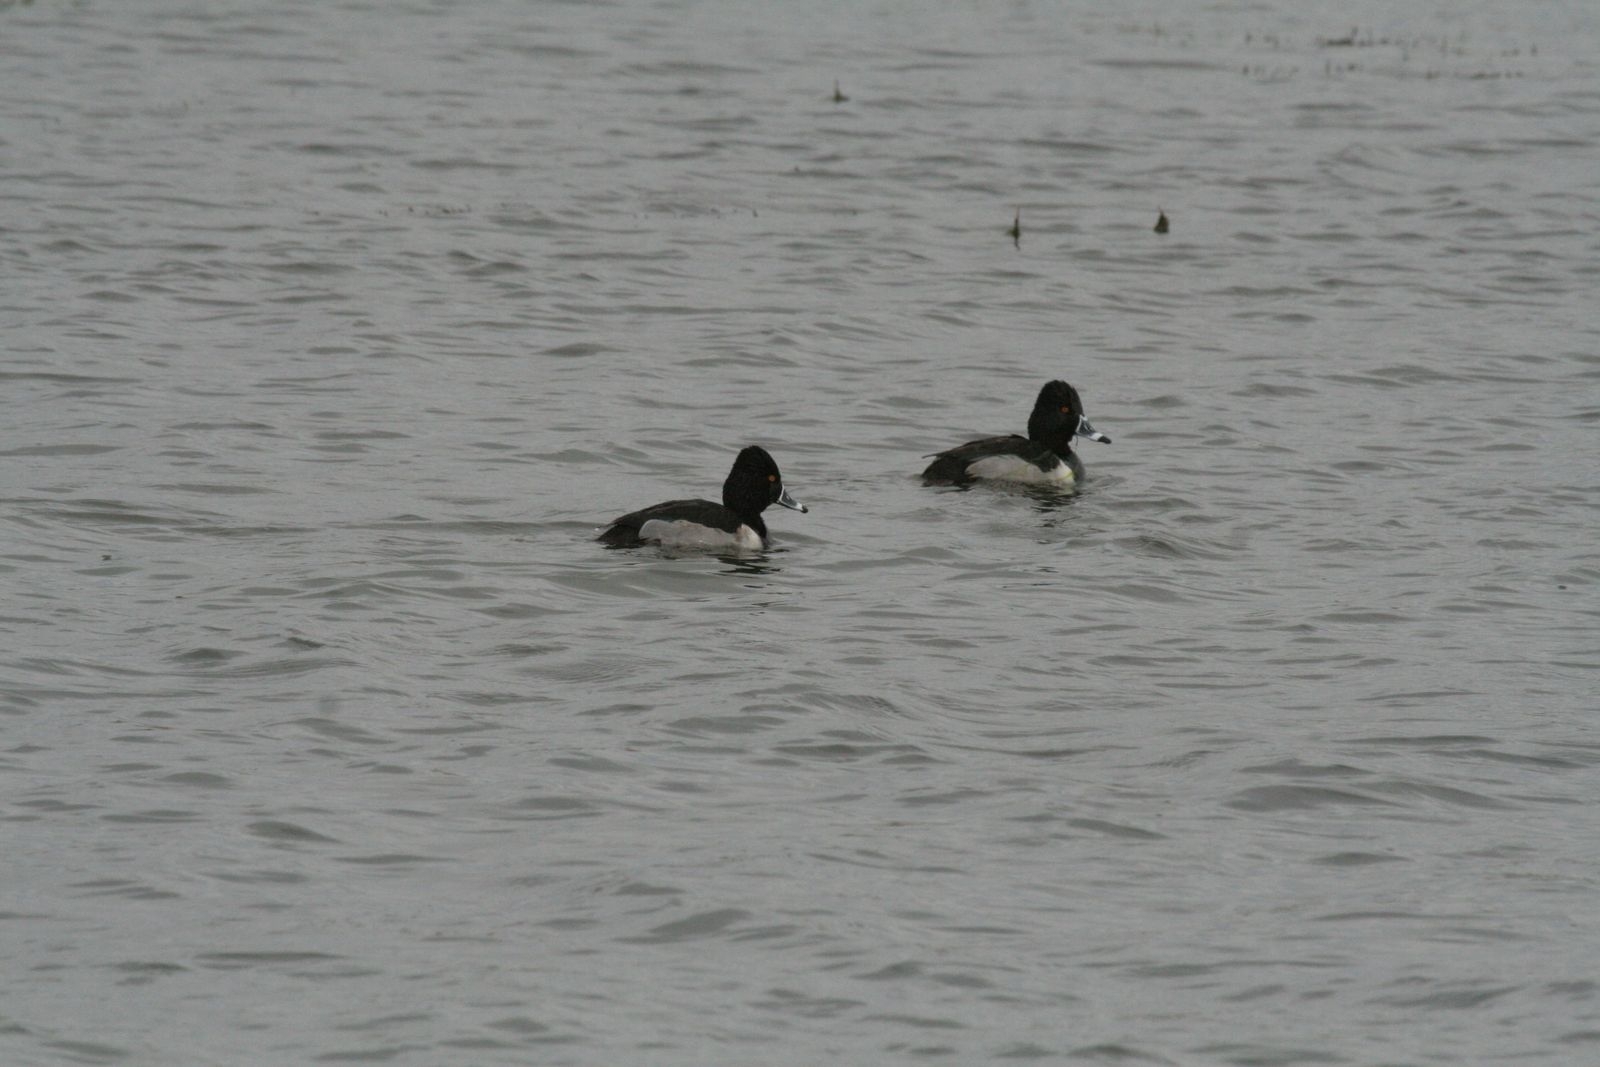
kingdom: Animalia
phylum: Chordata
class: Aves
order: Anseriformes
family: Anatidae
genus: Aythya
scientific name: Aythya collaris
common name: Ring-necked duck
